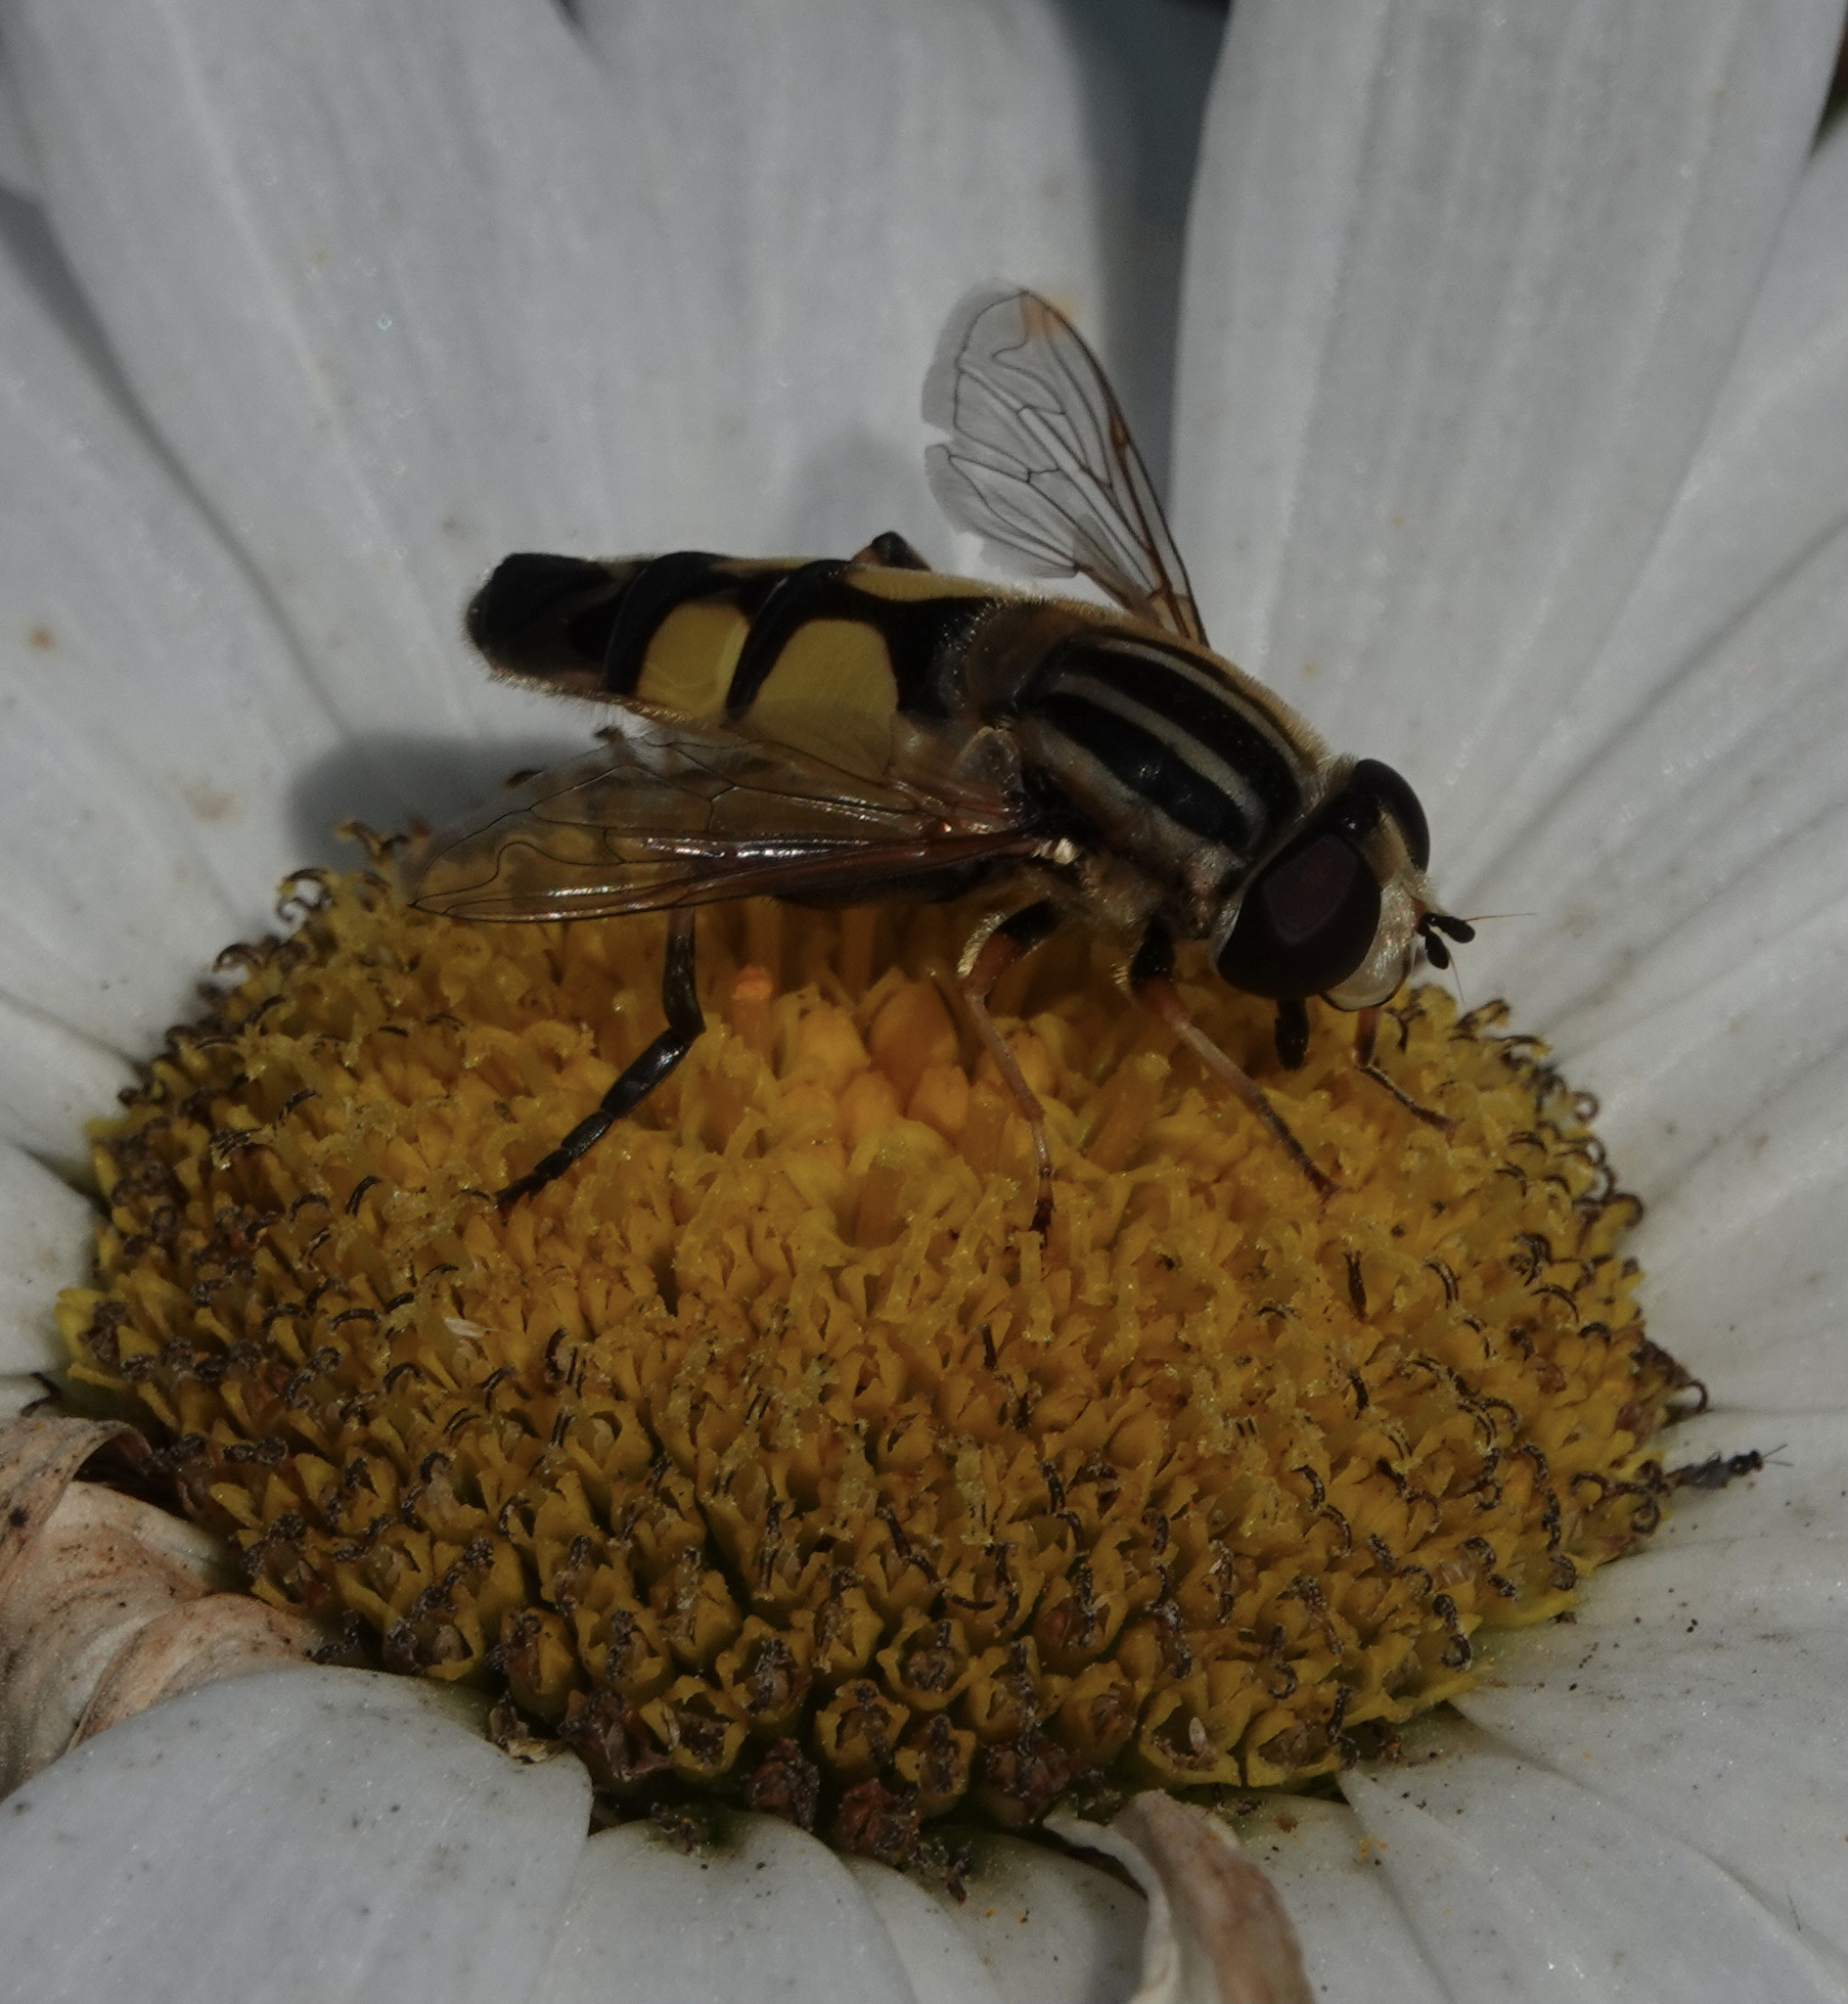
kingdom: Animalia
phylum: Arthropoda
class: Insecta
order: Diptera
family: Syrphidae
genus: Helophilus
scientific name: Helophilus trivittatus
